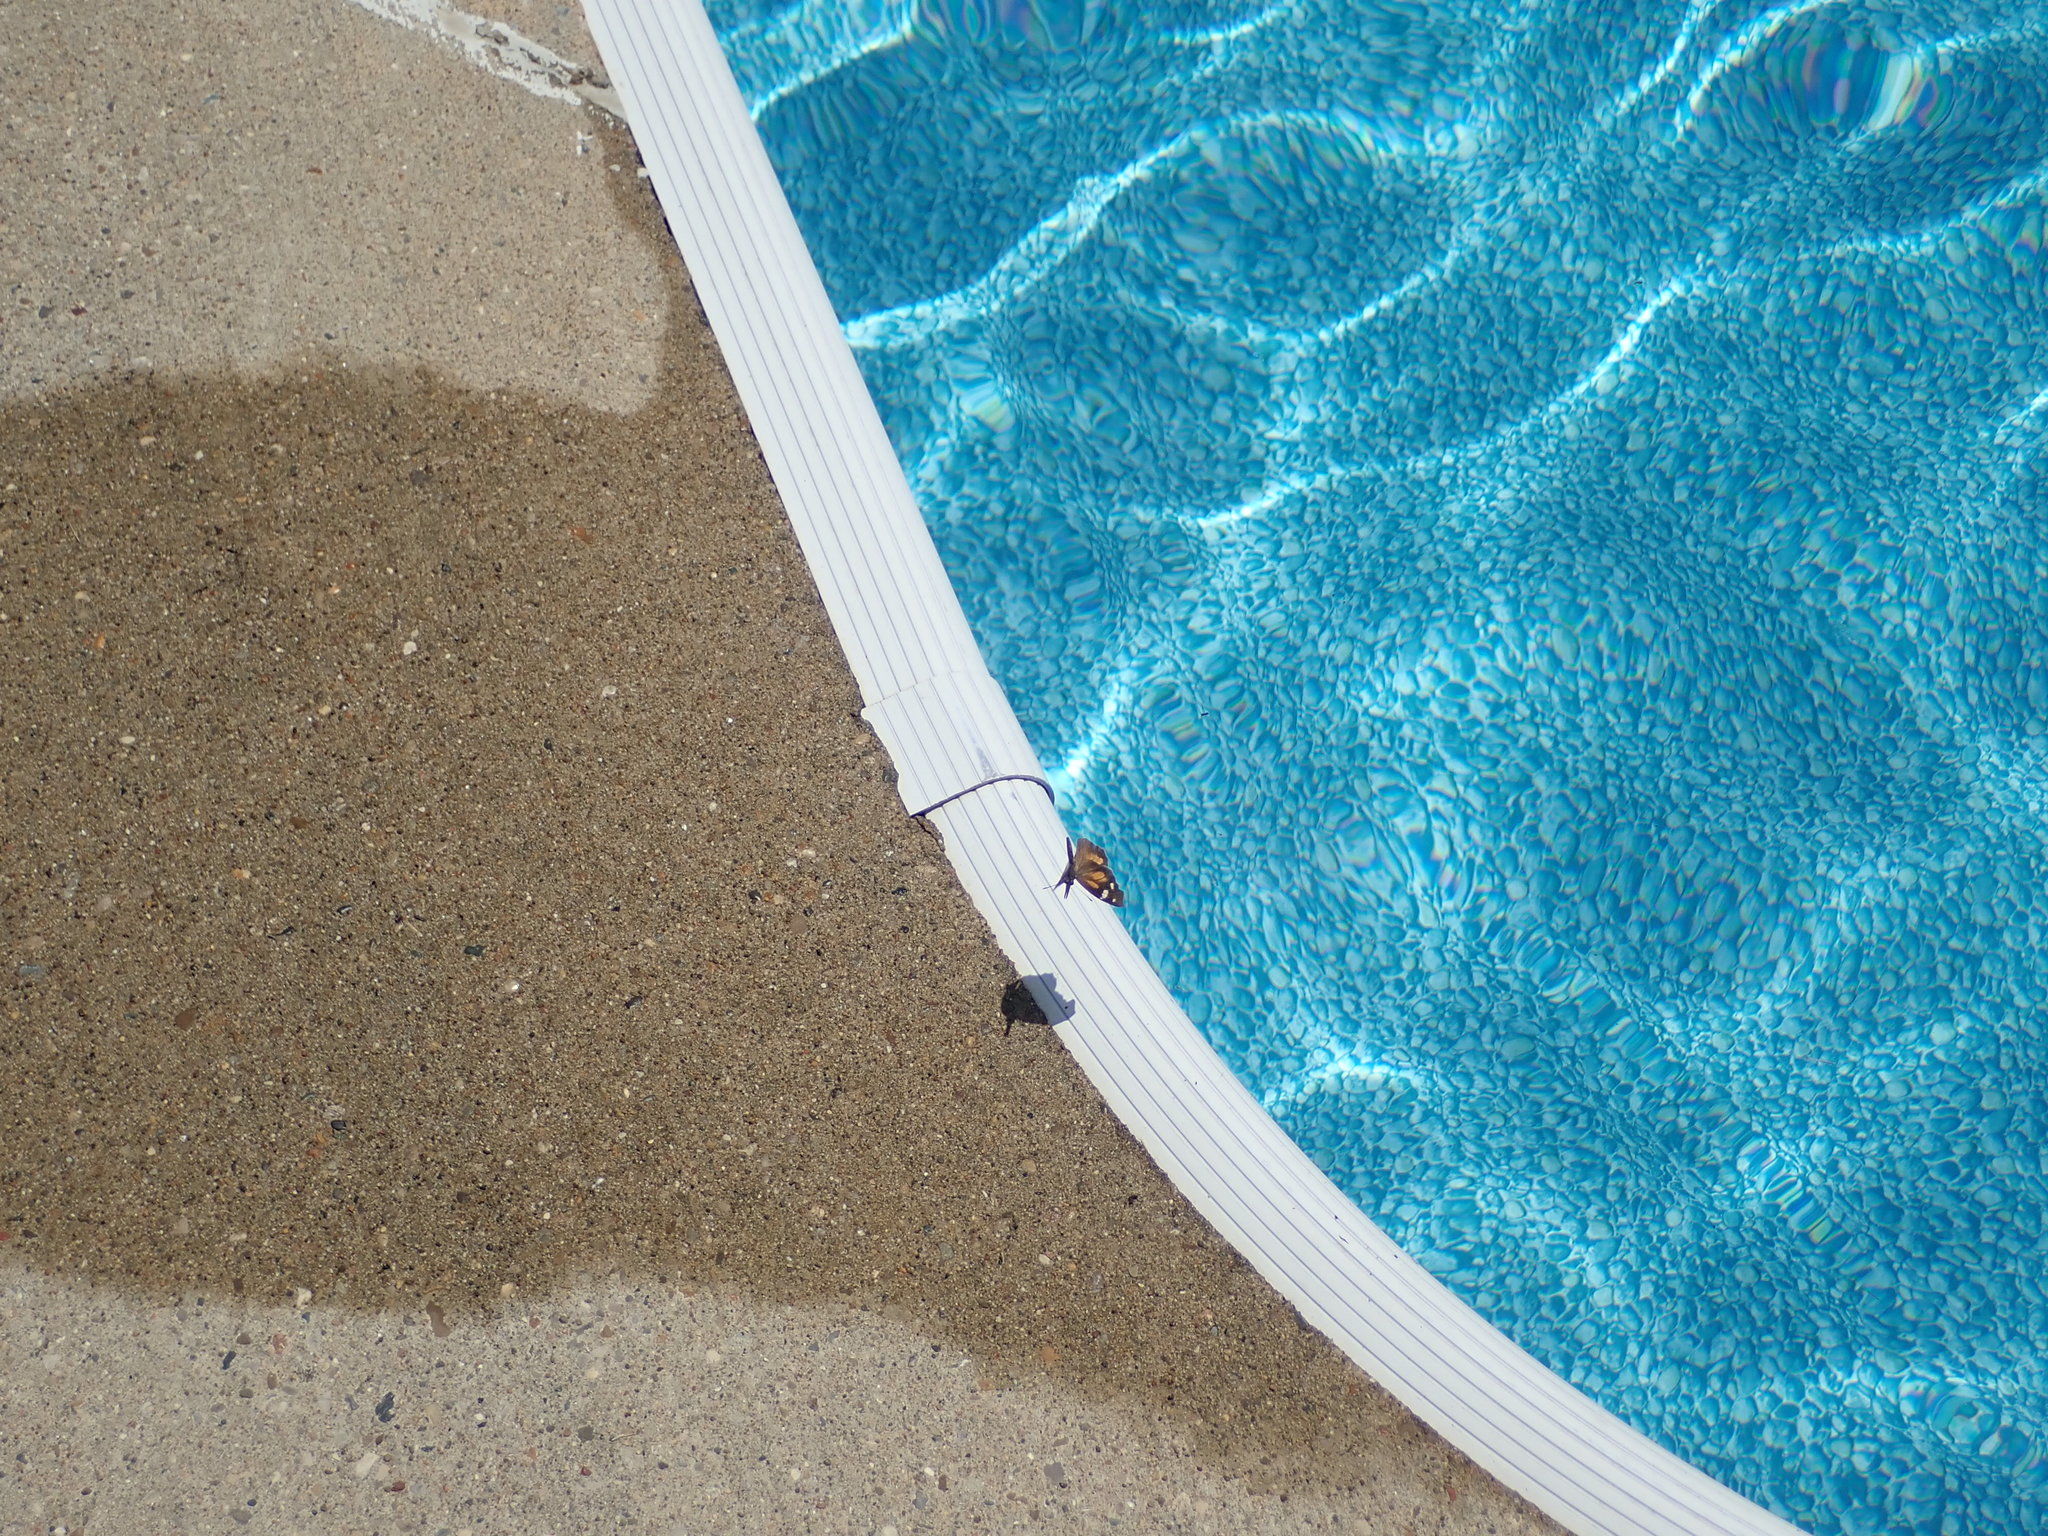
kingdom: Animalia
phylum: Arthropoda
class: Insecta
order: Lepidoptera
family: Nymphalidae
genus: Libytheana
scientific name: Libytheana carinenta
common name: American snout
